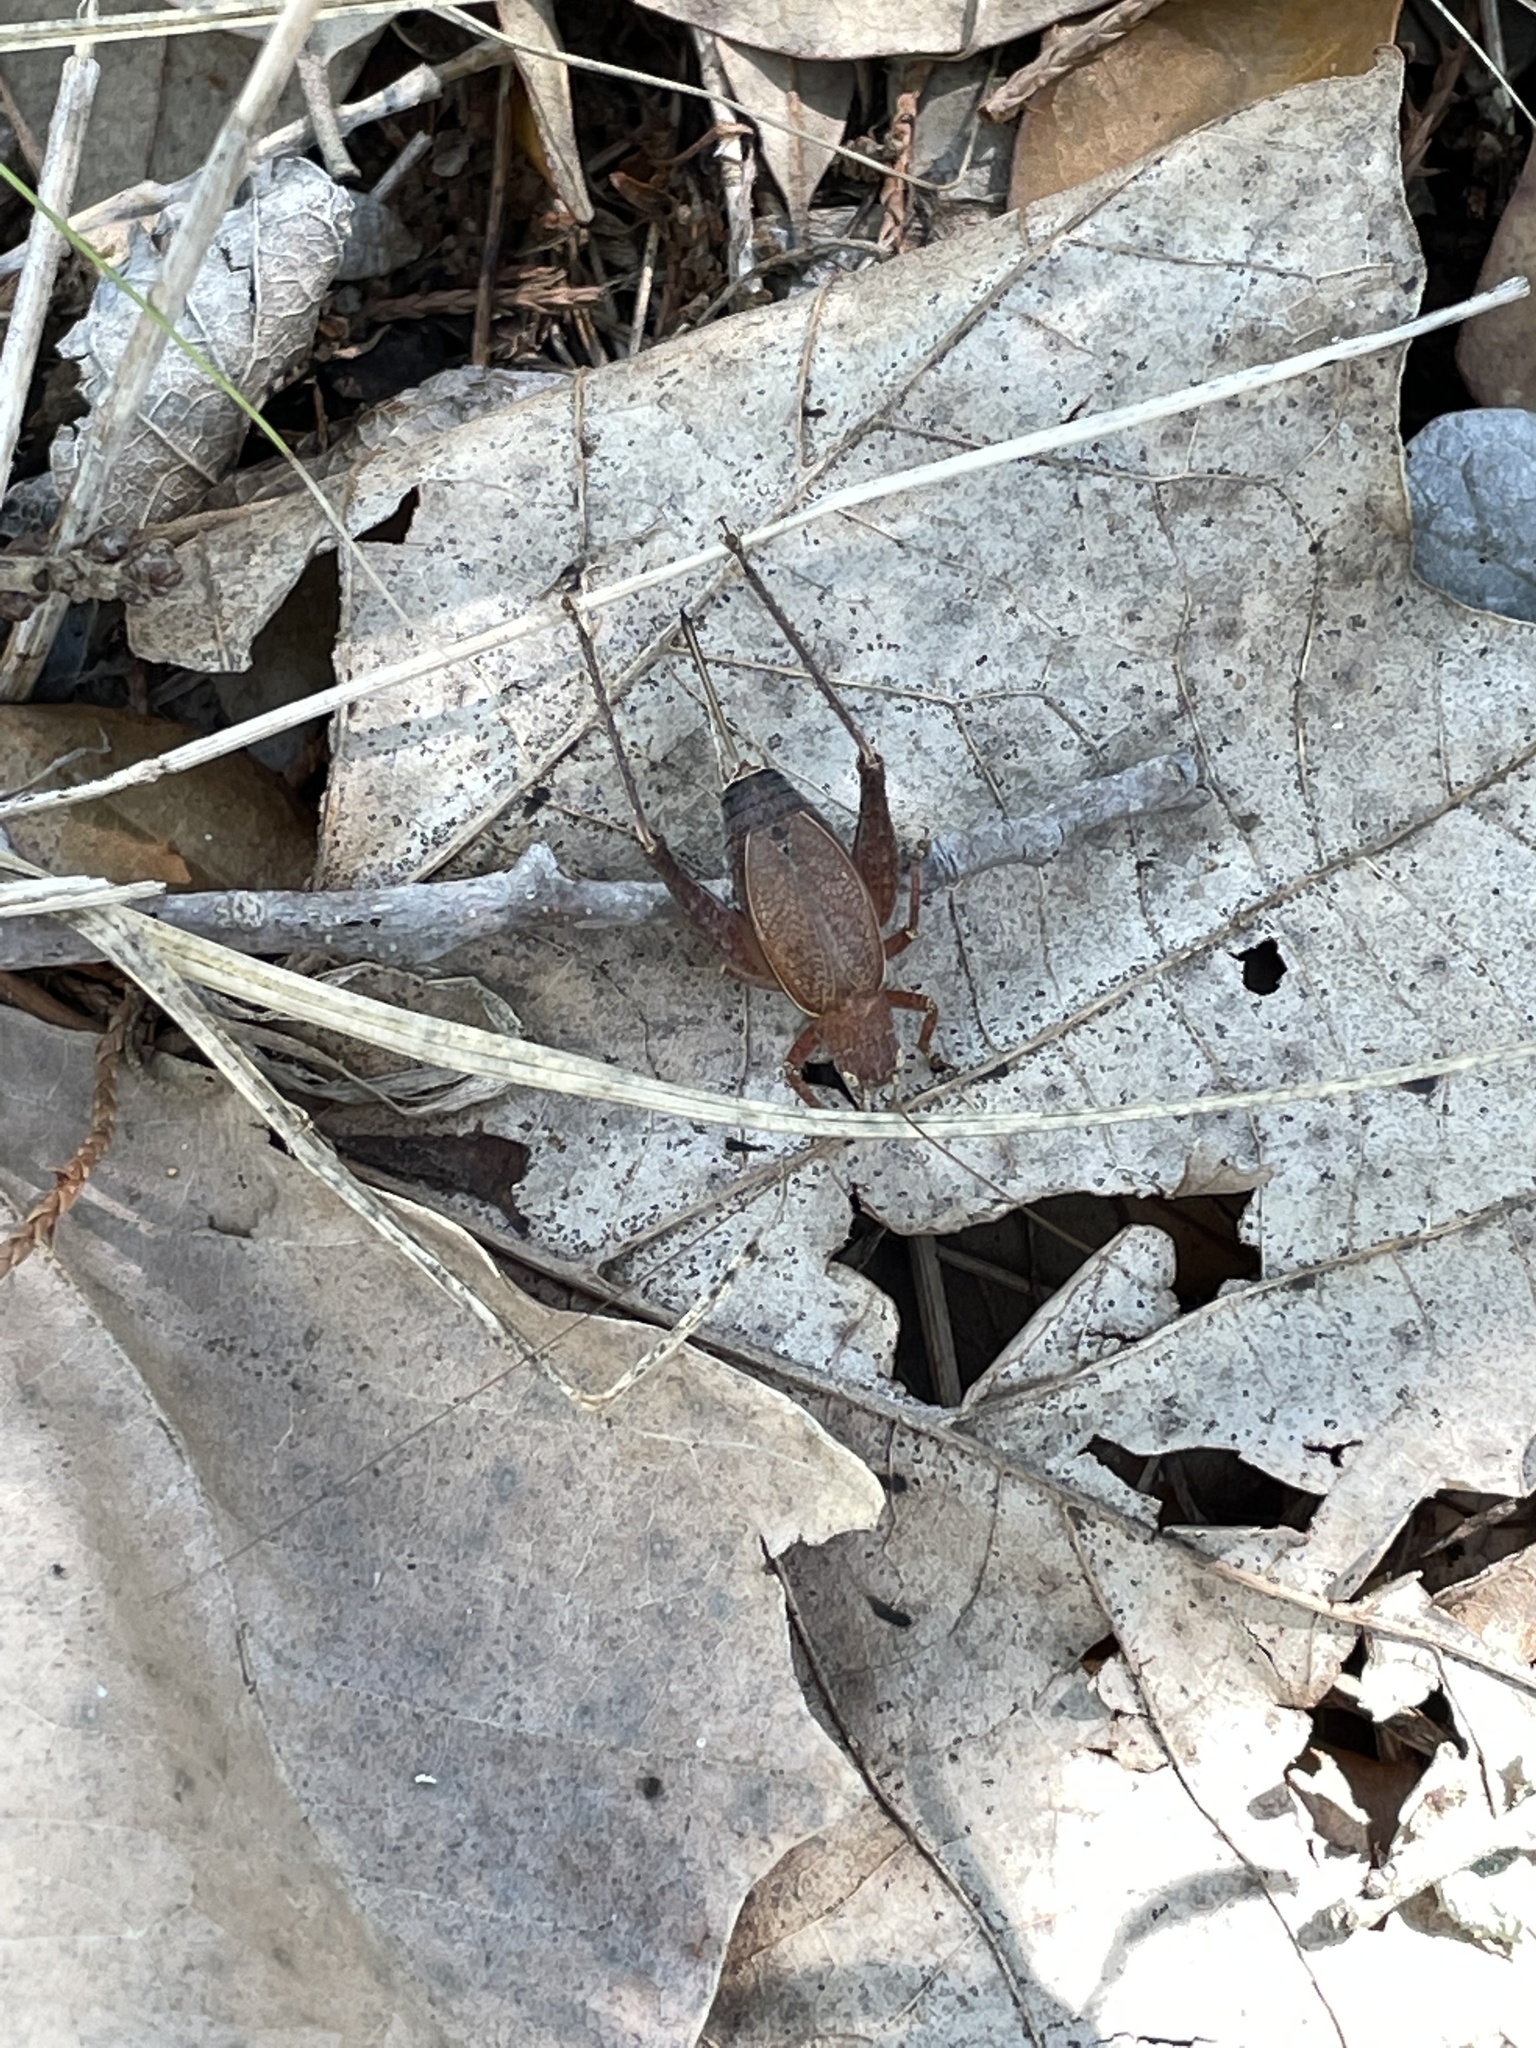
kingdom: Animalia
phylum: Arthropoda
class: Insecta
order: Orthoptera
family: Gryllidae
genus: Hapithus
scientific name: Hapithus agitator
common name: Restless bush cricket
